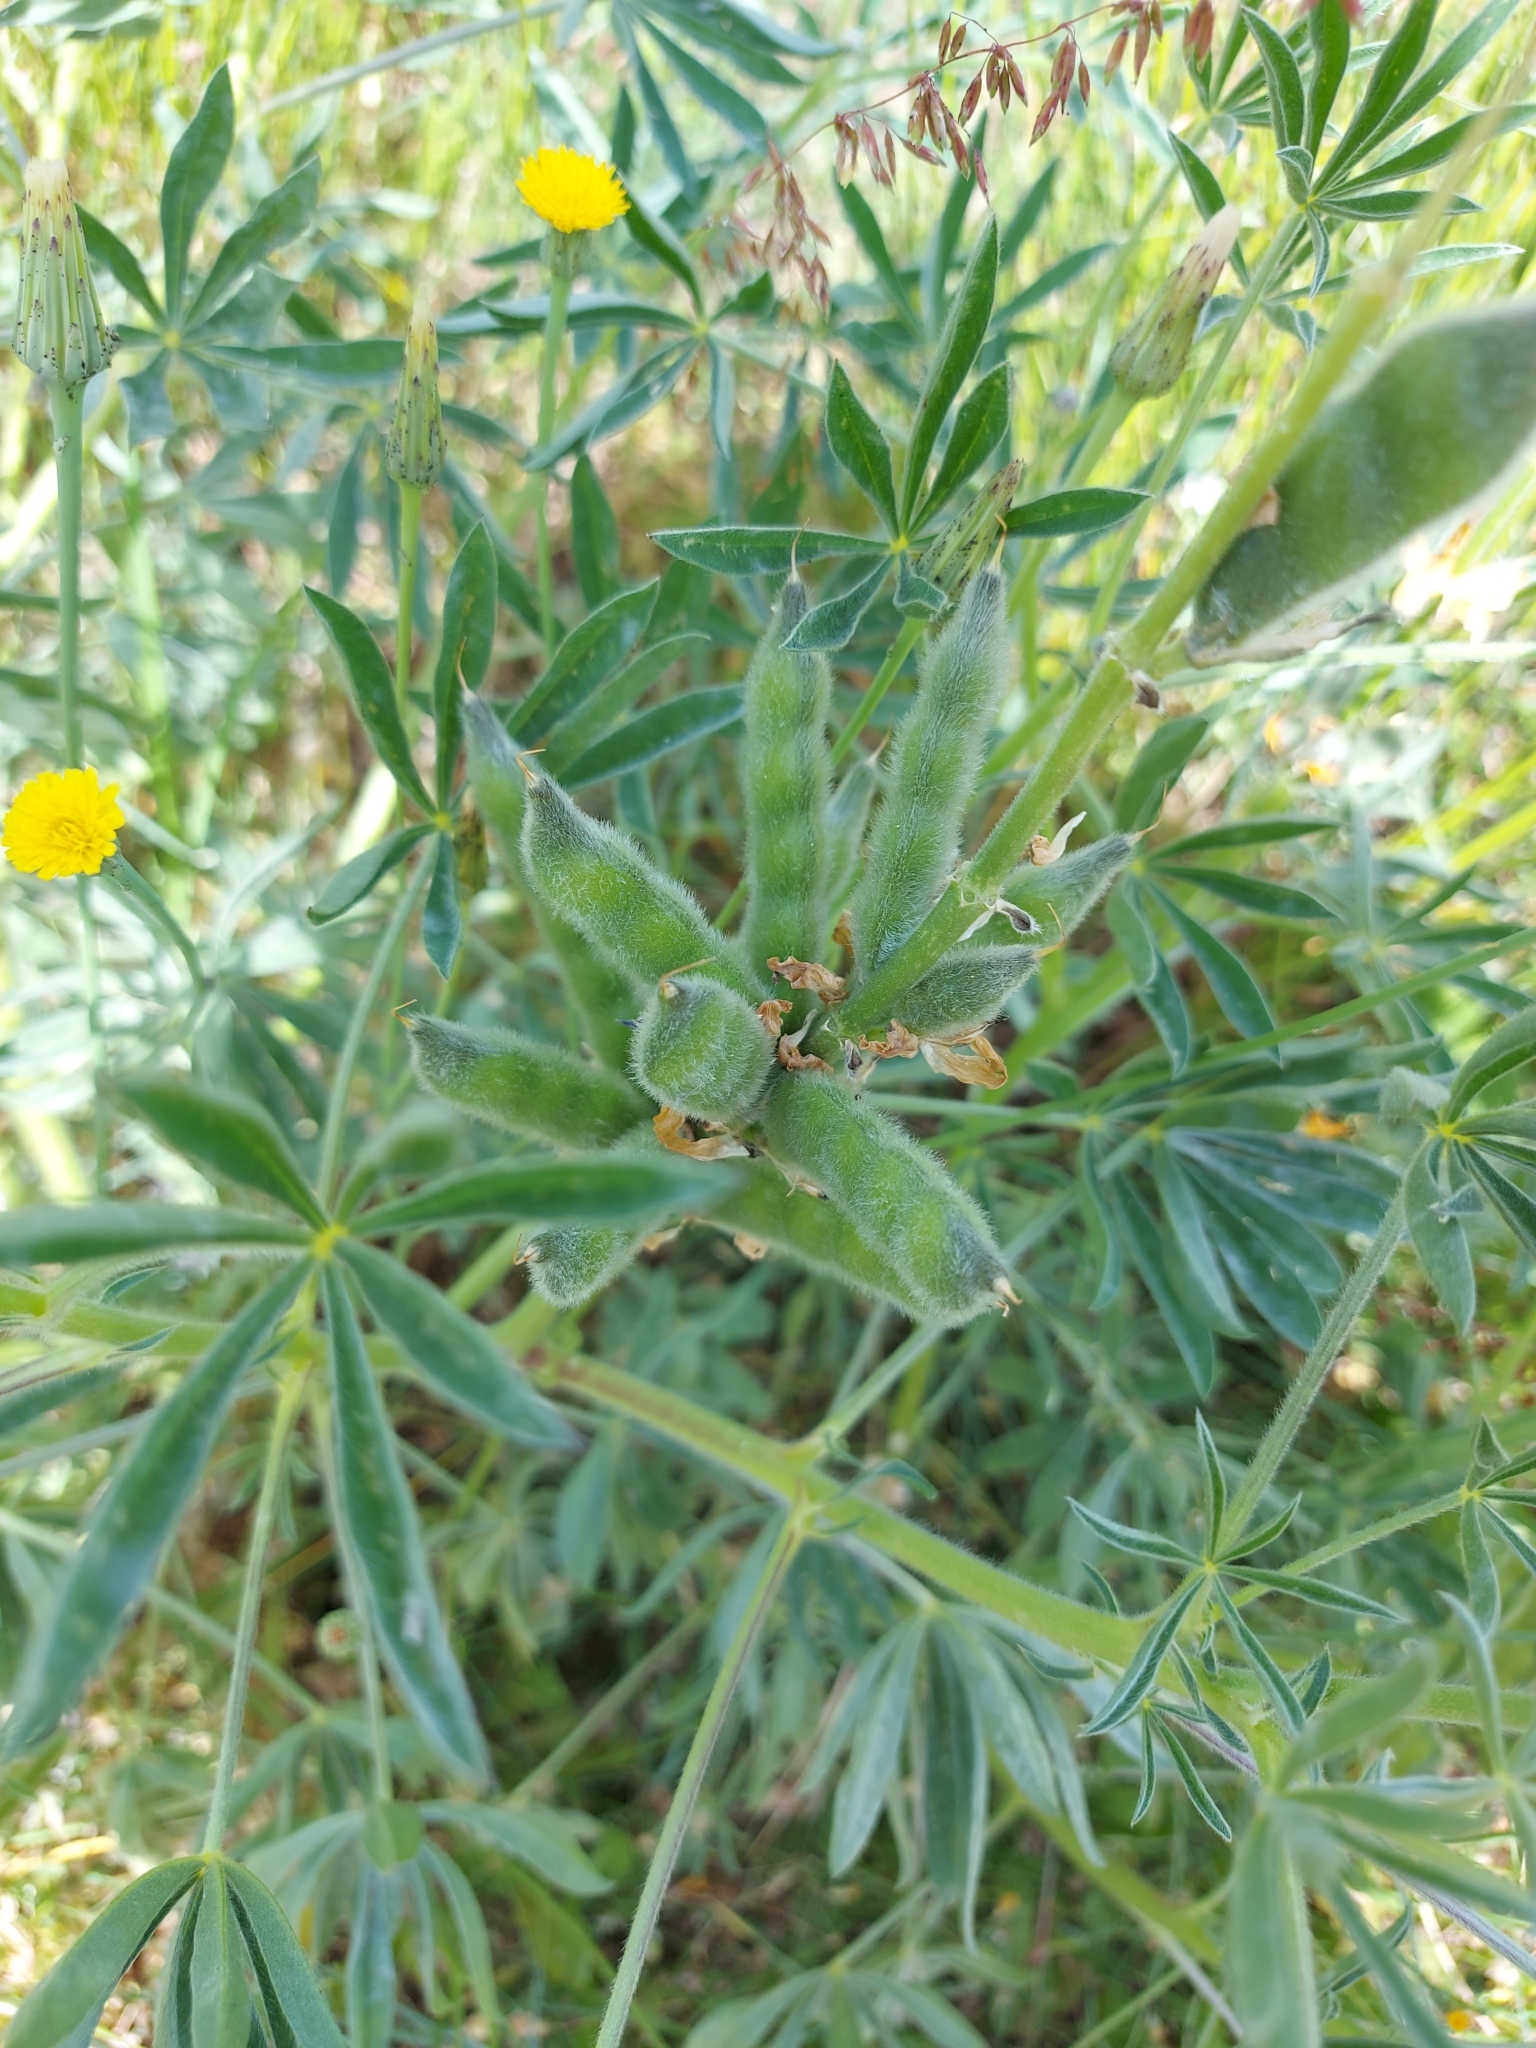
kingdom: Plantae
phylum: Tracheophyta
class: Magnoliopsida
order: Fabales
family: Fabaceae
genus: Lupinus
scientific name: Lupinus luteus
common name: European yellow lupine
